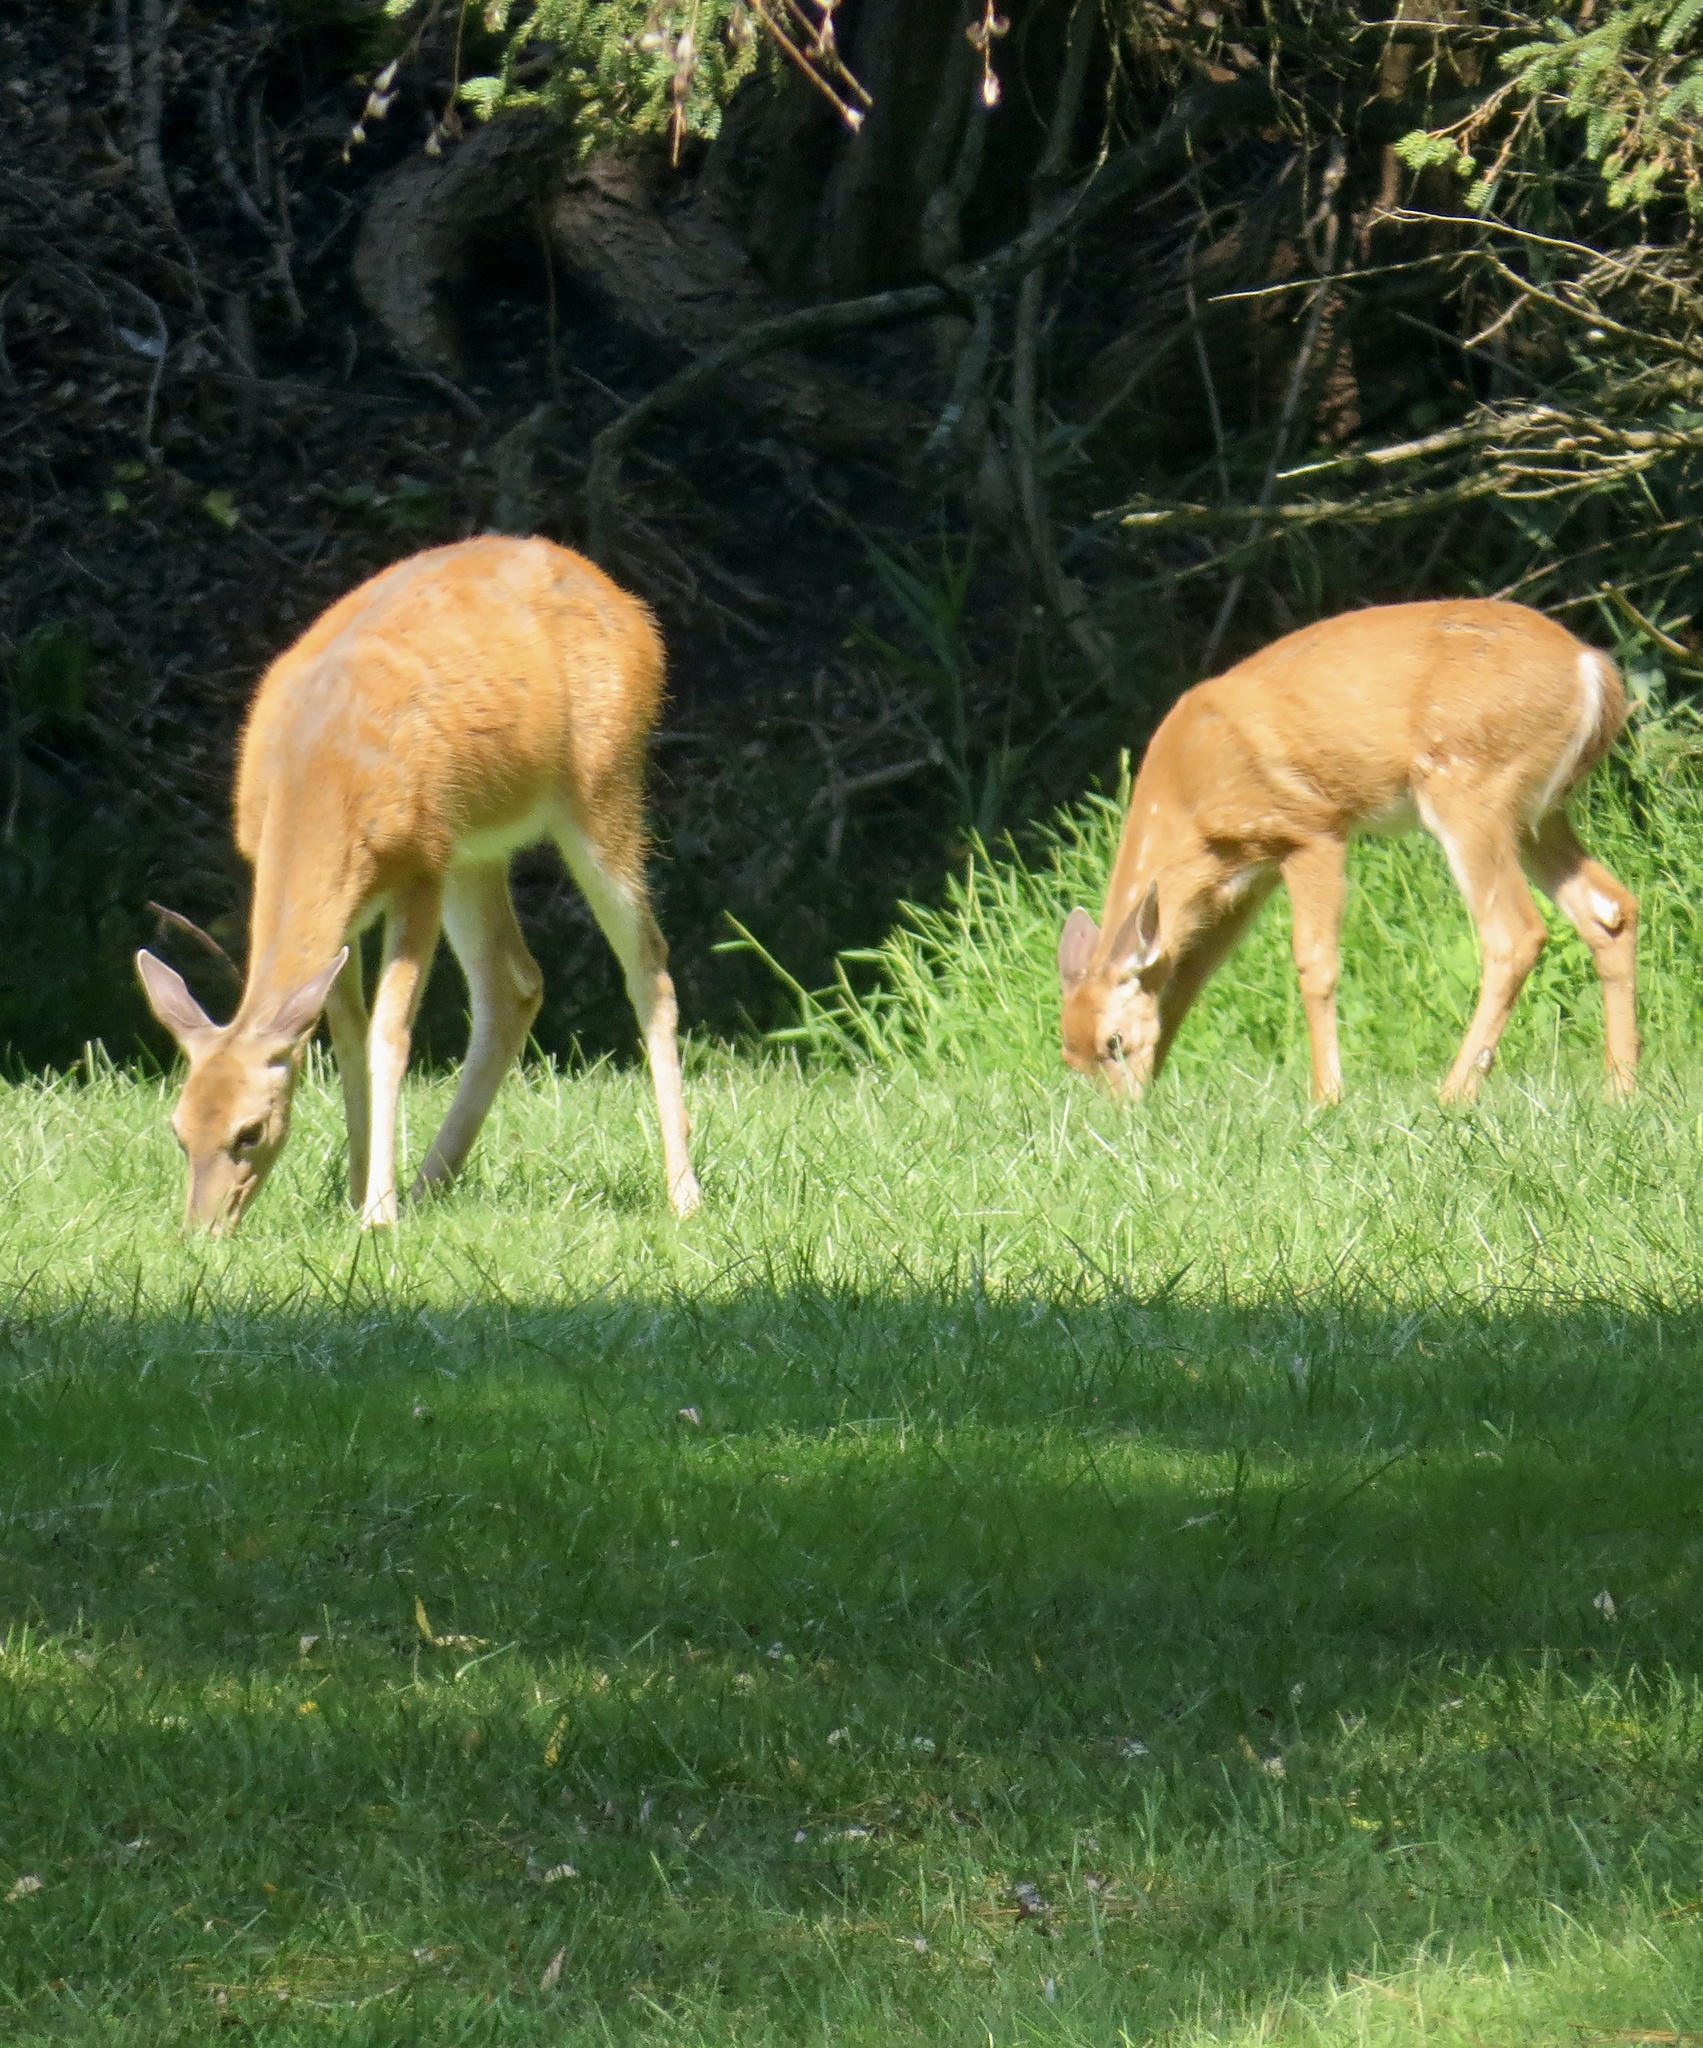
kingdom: Animalia
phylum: Chordata
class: Mammalia
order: Artiodactyla
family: Cervidae
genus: Odocoileus
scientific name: Odocoileus virginianus
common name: White-tailed deer
